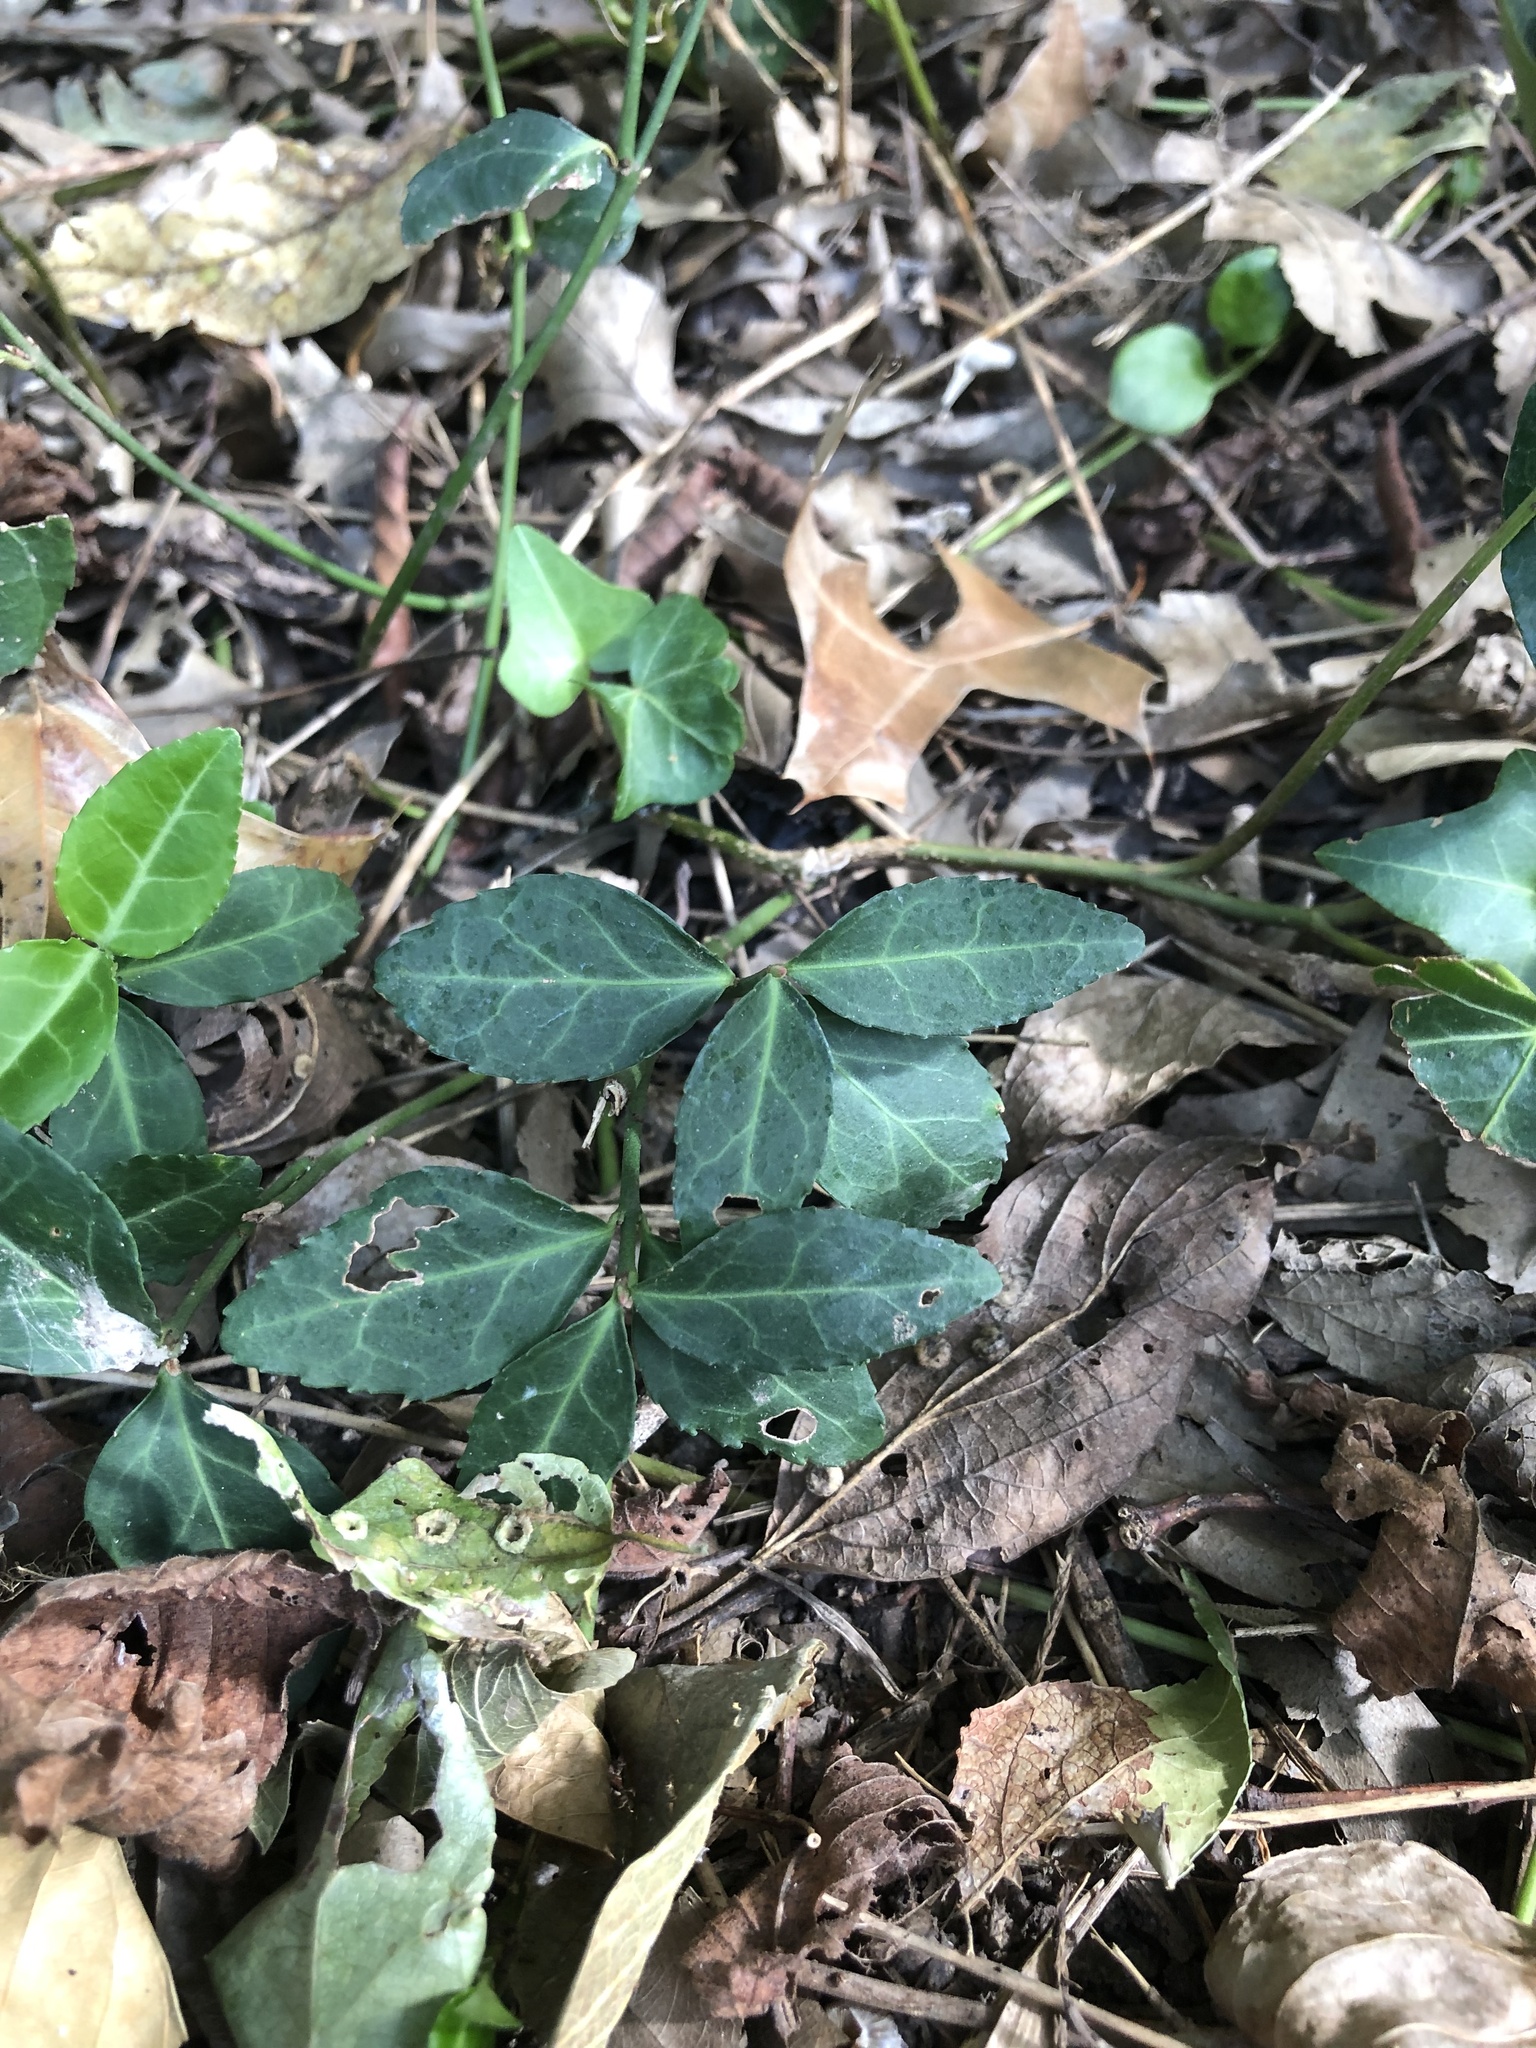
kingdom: Plantae
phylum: Tracheophyta
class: Magnoliopsida
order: Celastrales
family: Celastraceae
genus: Euonymus
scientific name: Euonymus fortunei
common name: Climbing euonymus
